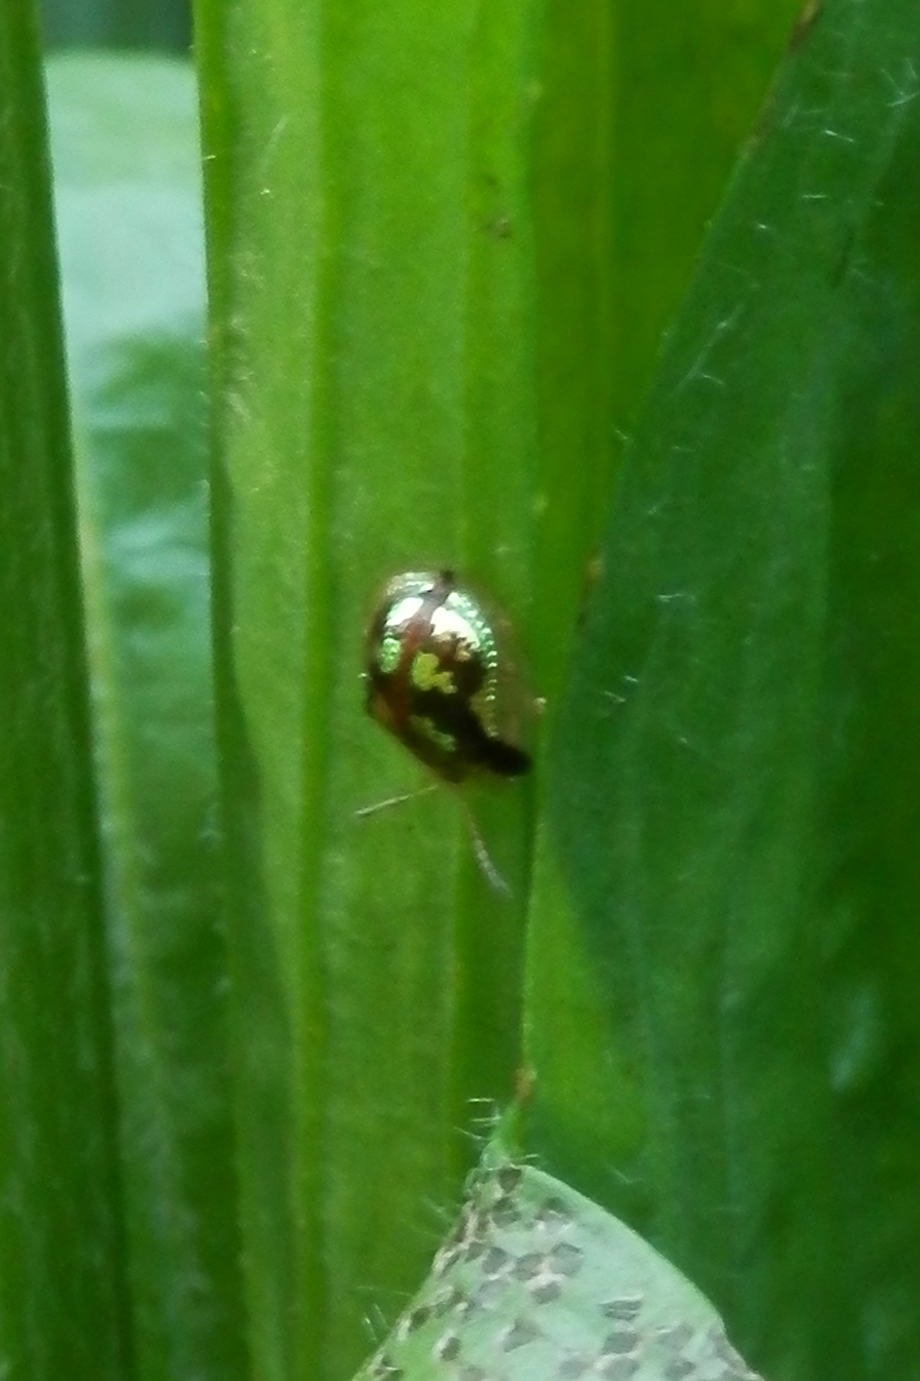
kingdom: Animalia
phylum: Arthropoda
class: Insecta
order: Coleoptera
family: Chrysomelidae
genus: Deloyala
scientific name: Deloyala guttata
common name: Mottled tortoise beetle
